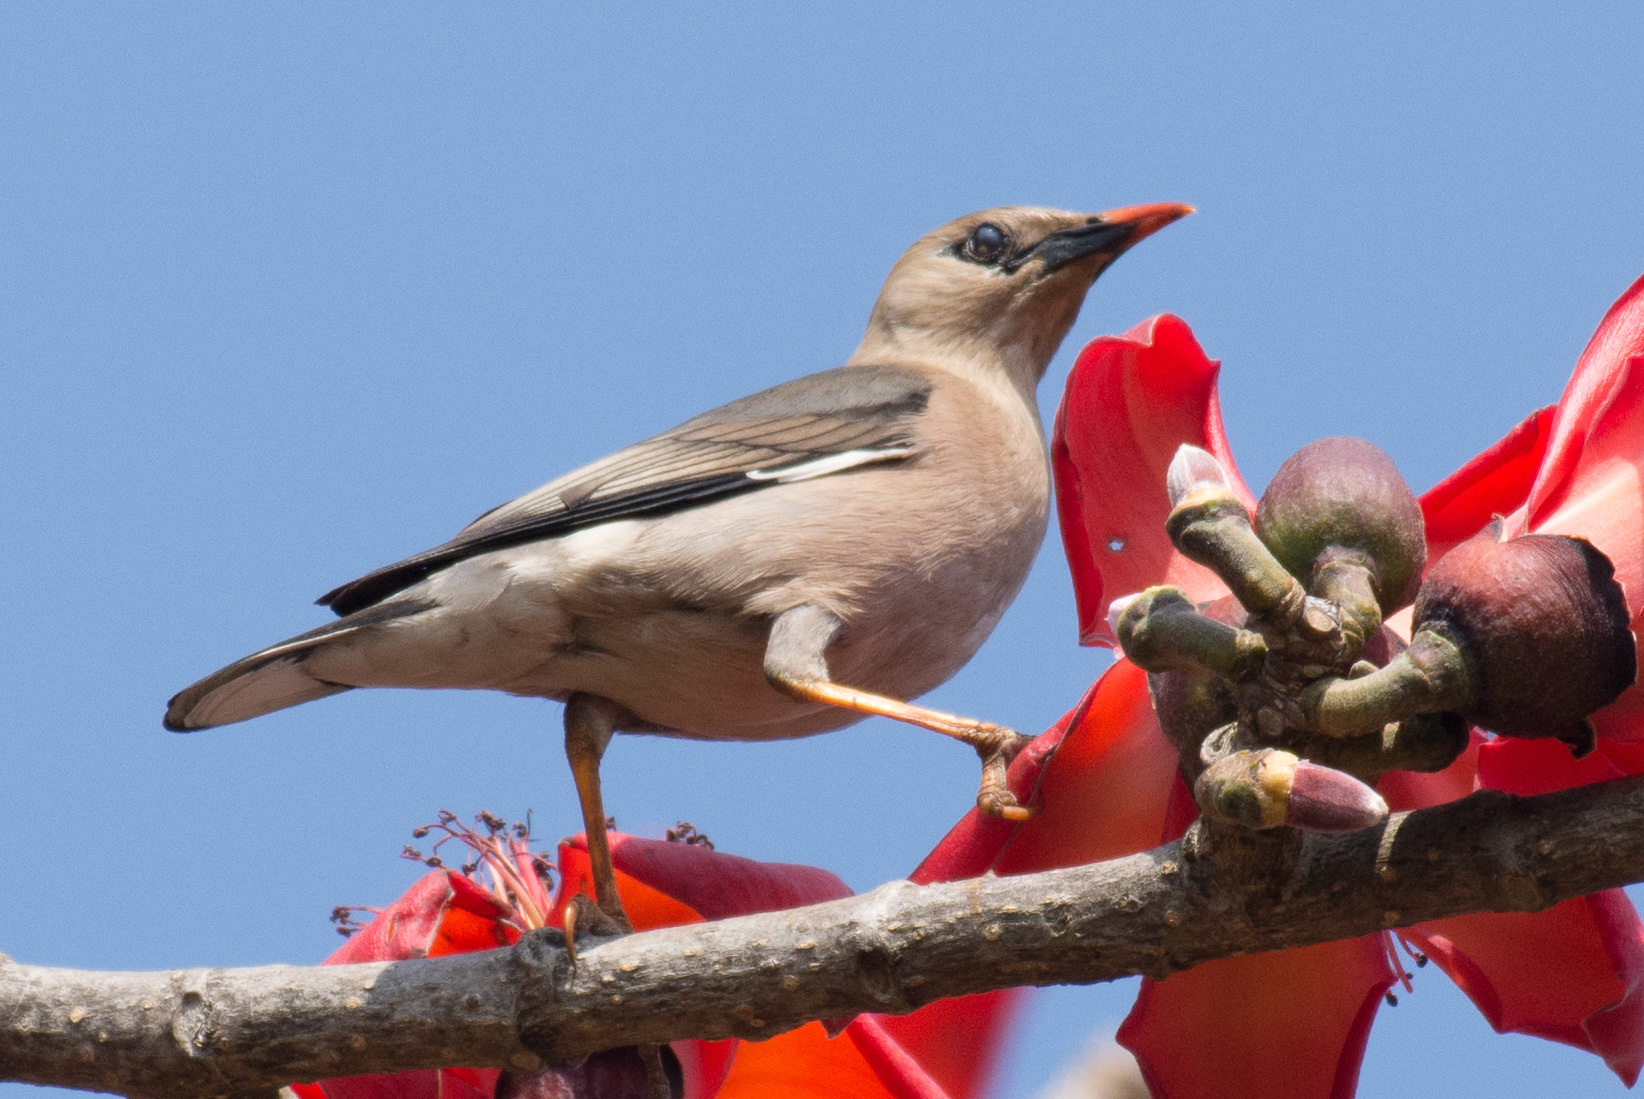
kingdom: Animalia
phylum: Chordata
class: Aves
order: Passeriformes
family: Sturnidae
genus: Acridotheres
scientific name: Acridotheres burmannicus
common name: Vinous-breasted starling
